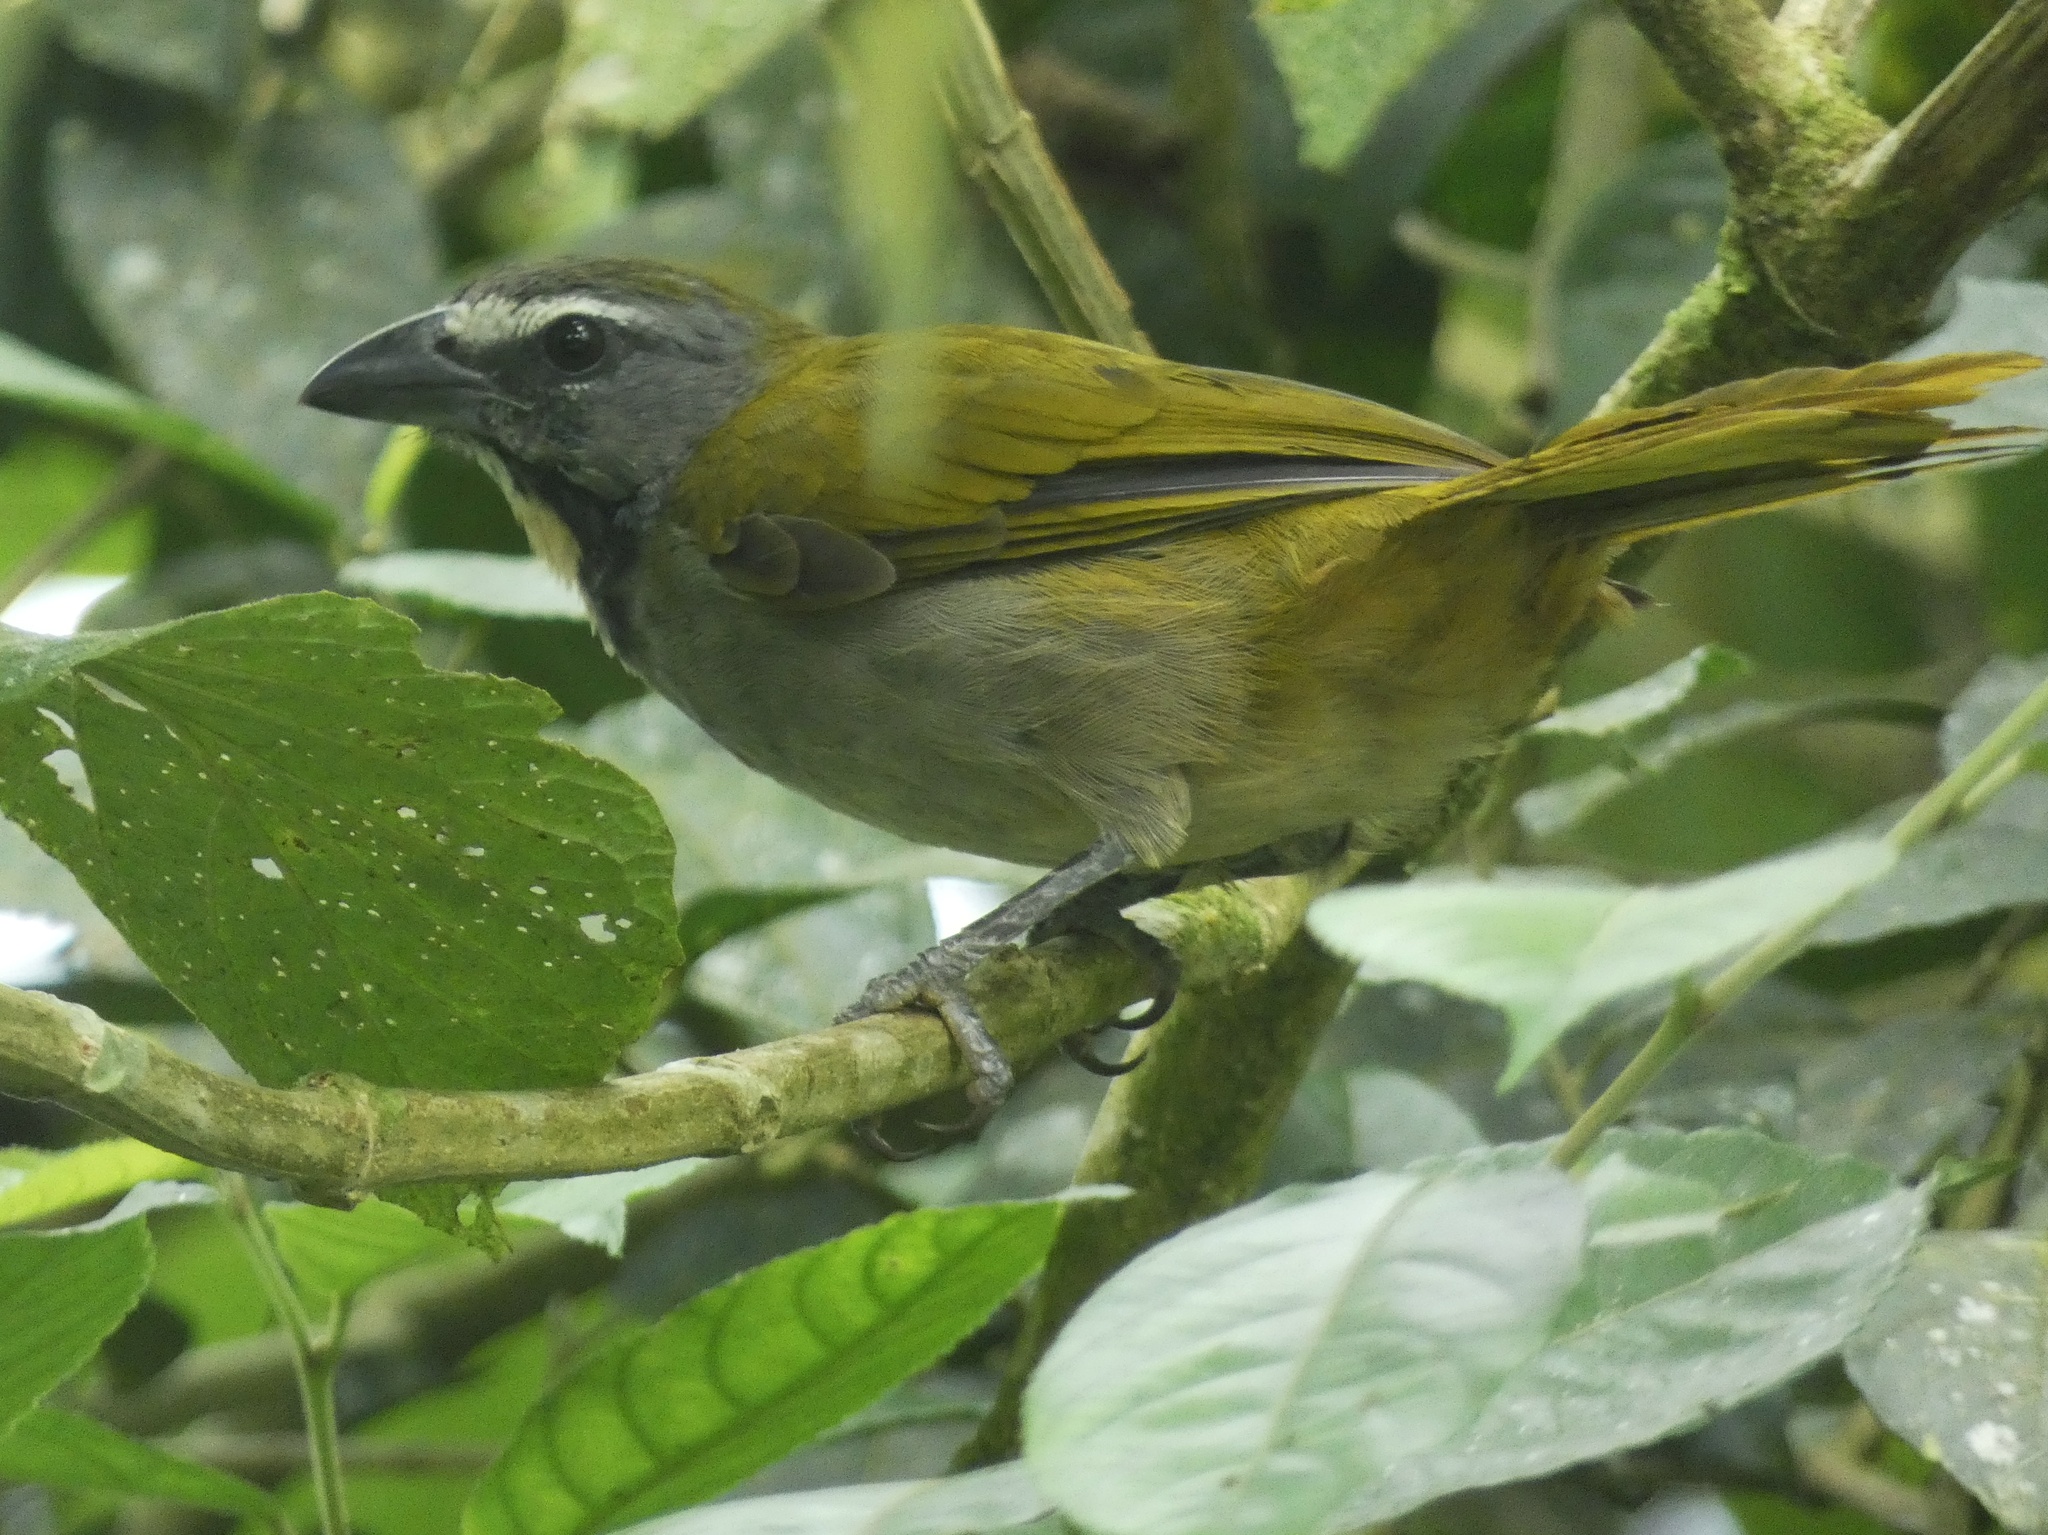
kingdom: Animalia
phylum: Chordata
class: Aves
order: Passeriformes
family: Thraupidae
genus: Saltator
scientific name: Saltator maximus
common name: Buff-throated saltator
